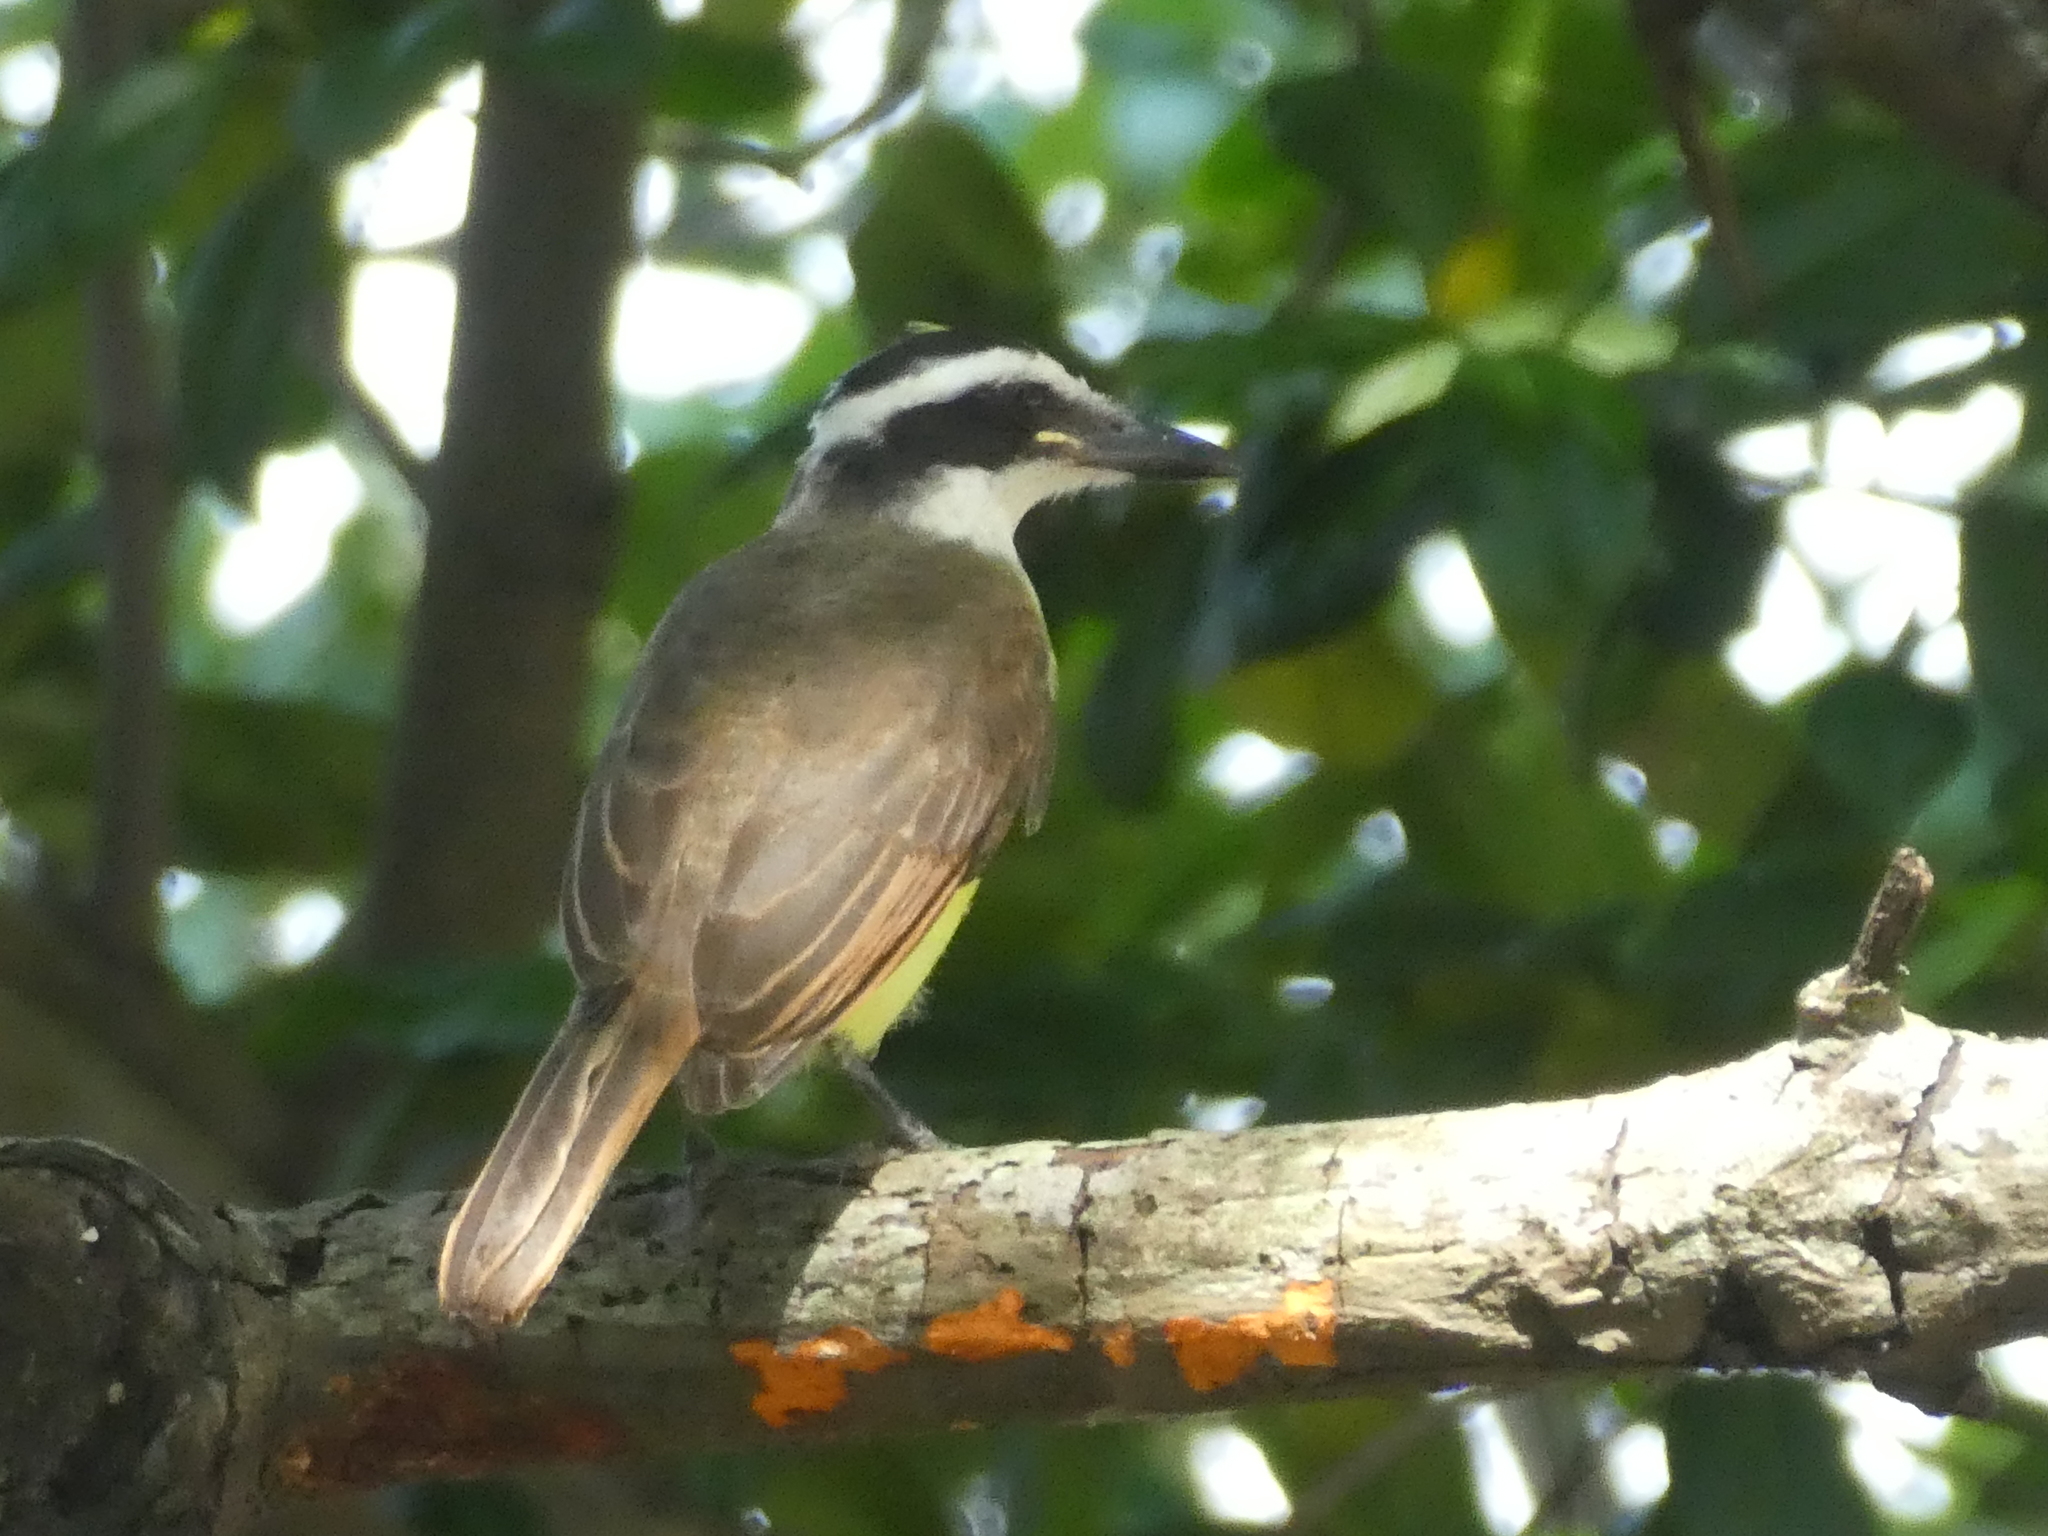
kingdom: Animalia
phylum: Chordata
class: Aves
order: Passeriformes
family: Tyrannidae
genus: Pitangus
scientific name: Pitangus sulphuratus
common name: Great kiskadee
